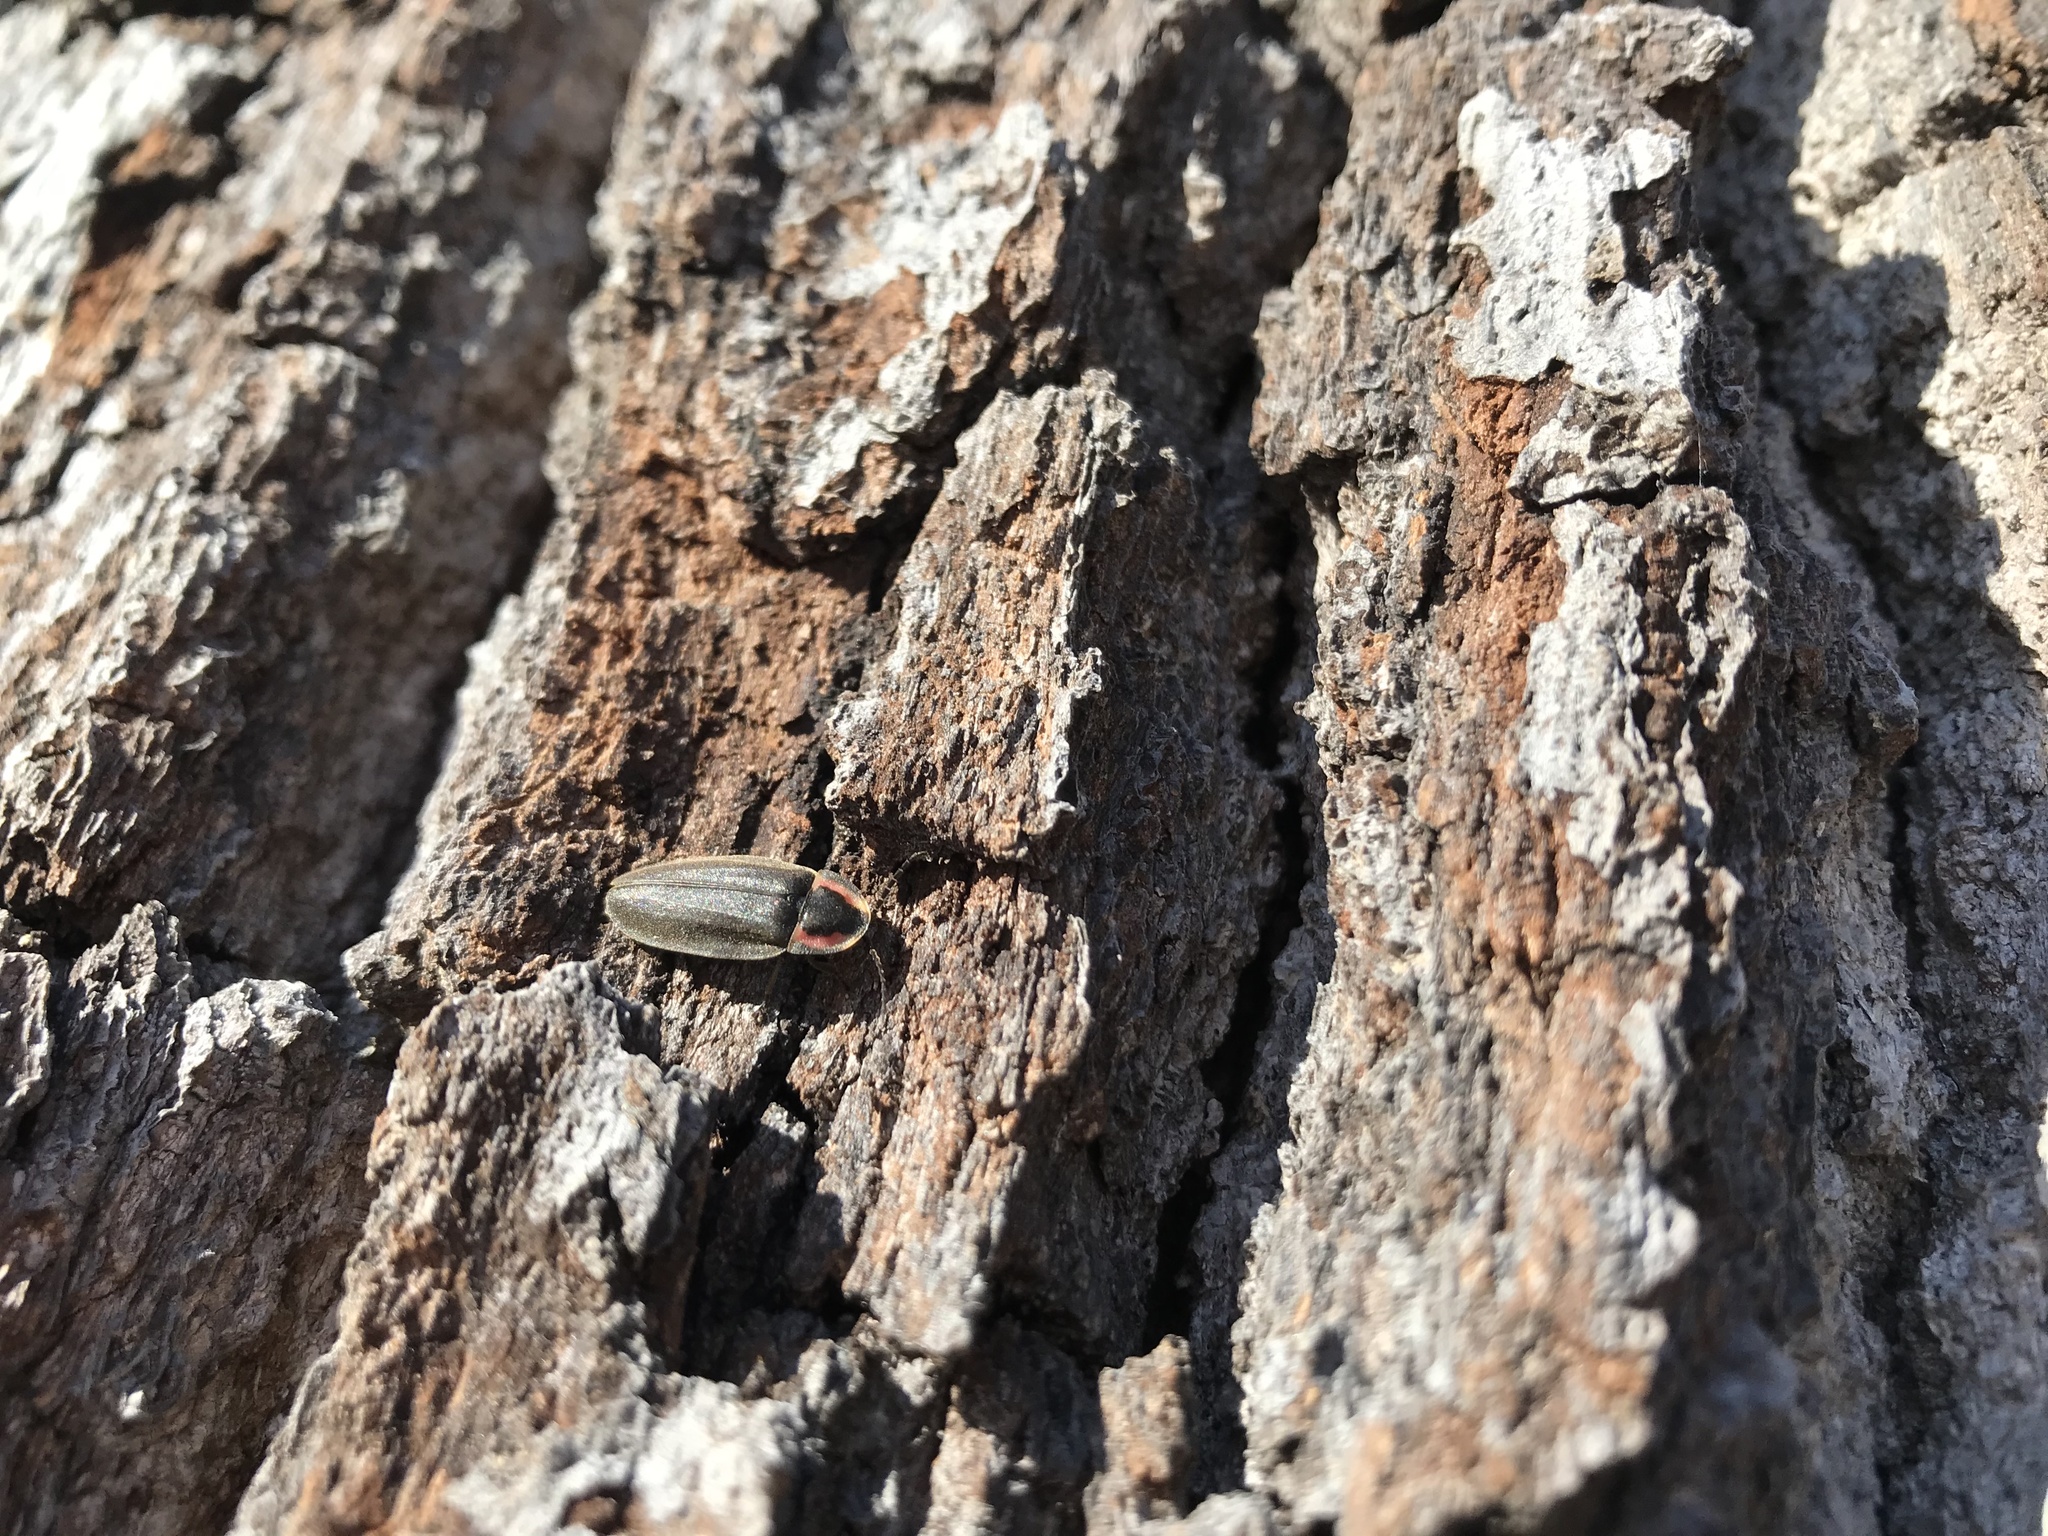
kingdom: Animalia
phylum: Arthropoda
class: Insecta
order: Coleoptera
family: Lampyridae
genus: Photinus
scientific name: Photinus corrusca
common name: Winter firefly
